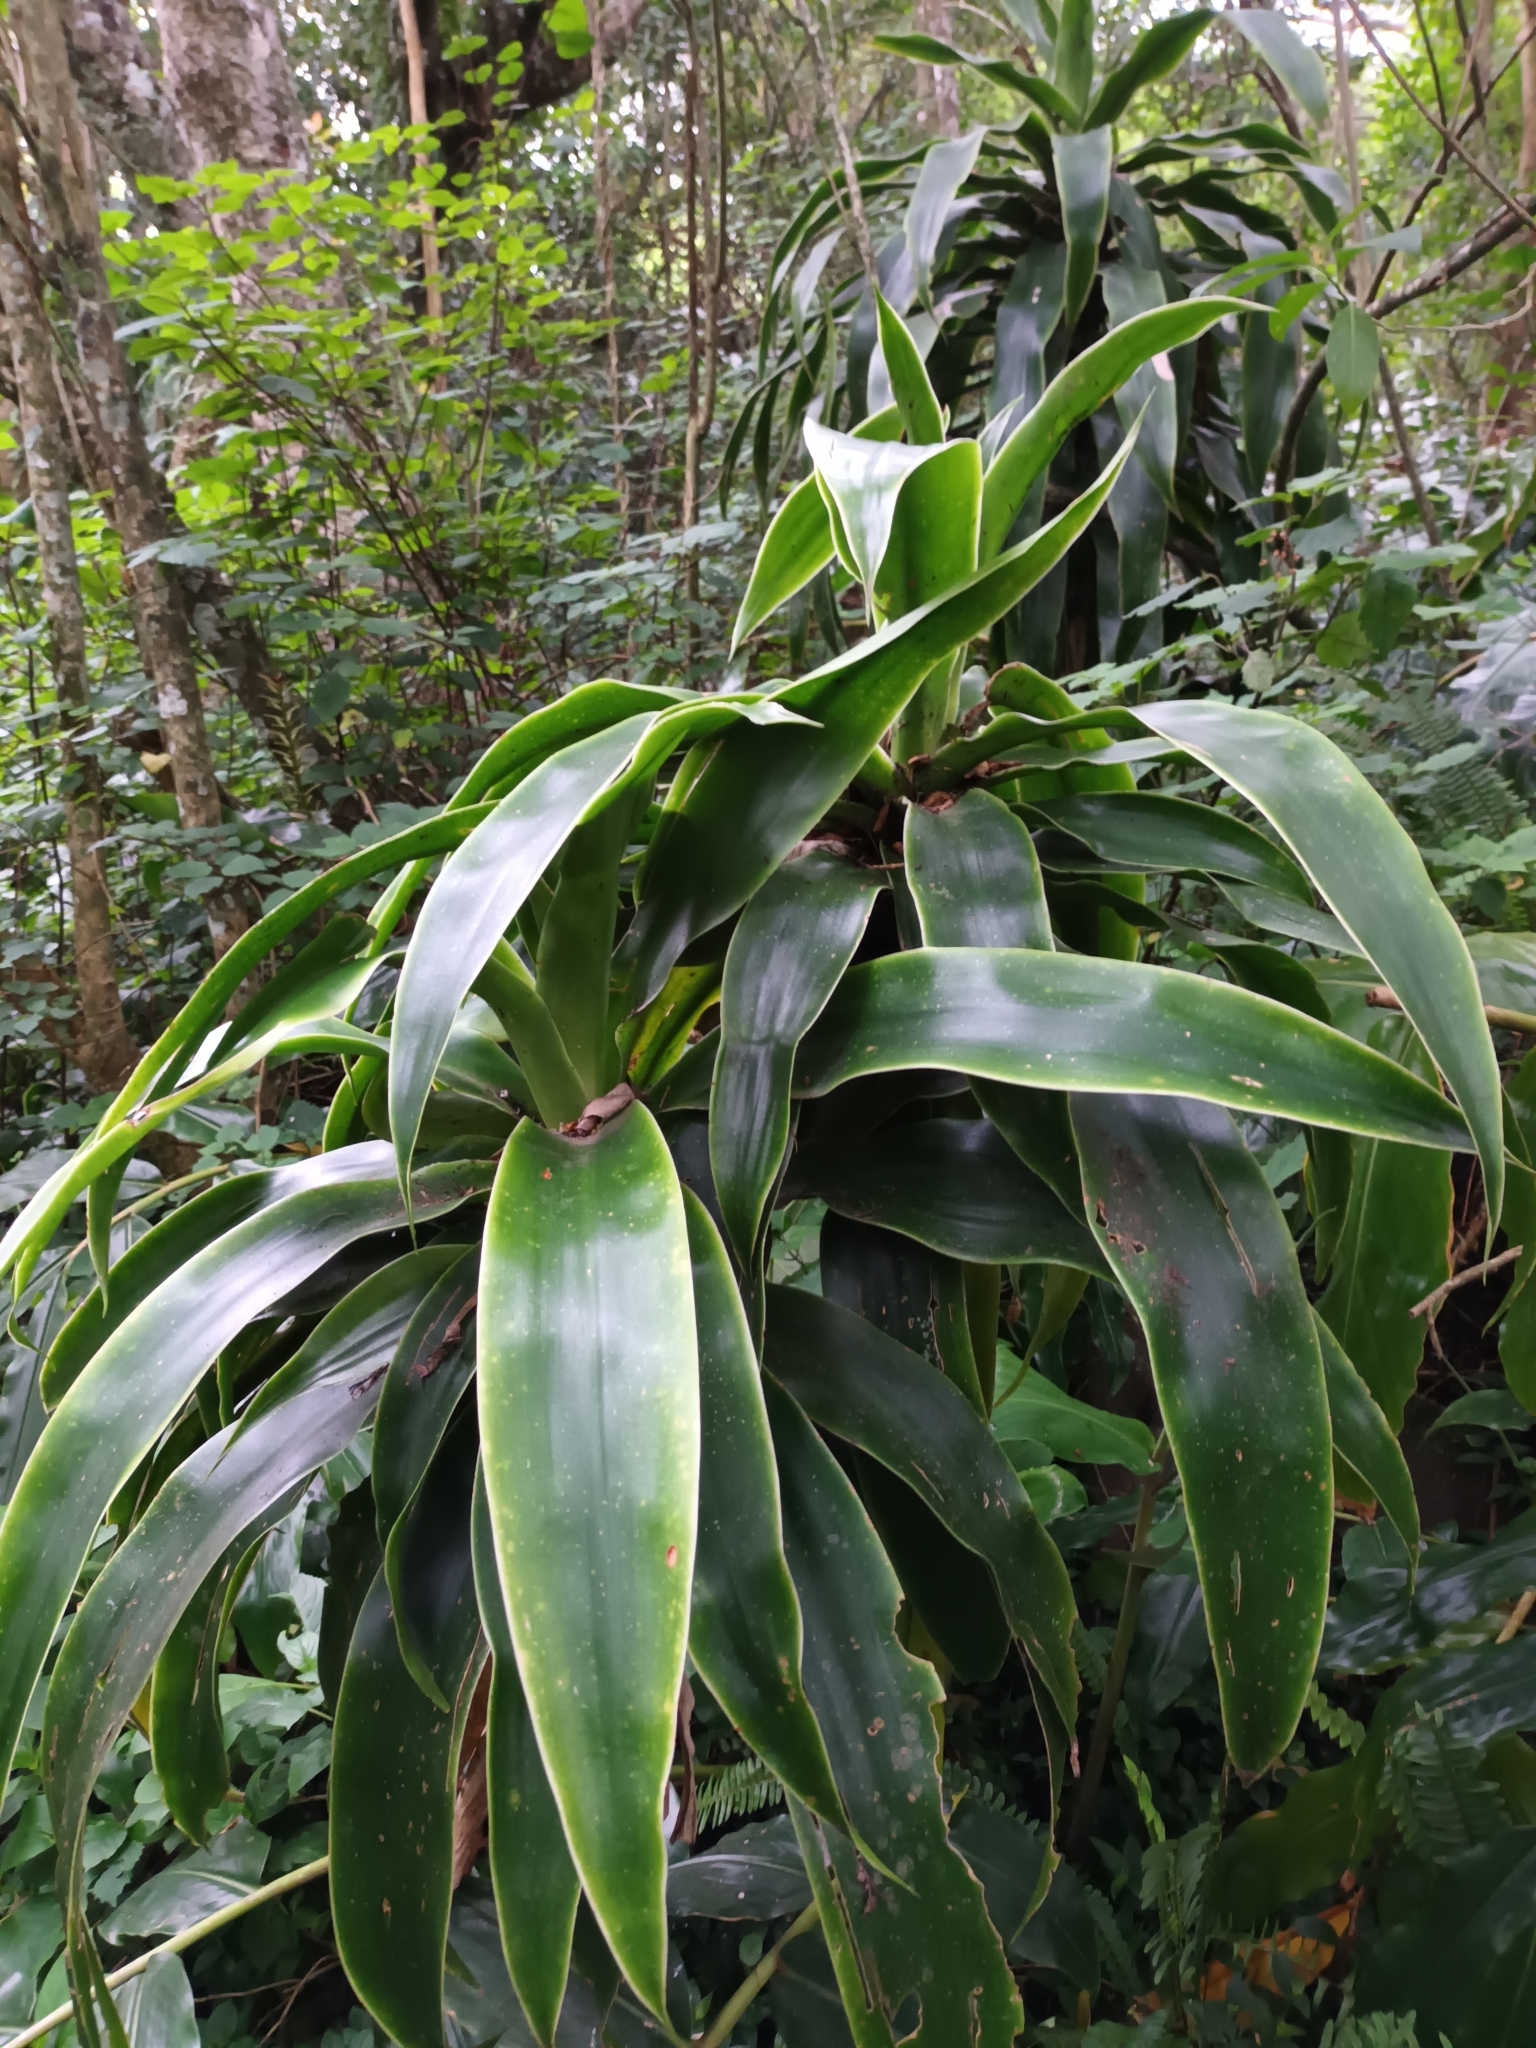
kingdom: Plantae
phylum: Tracheophyta
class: Liliopsida
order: Asparagales
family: Asparagaceae
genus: Dracaena
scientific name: Dracaena aletriformis
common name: Large-leaved dragon tree
